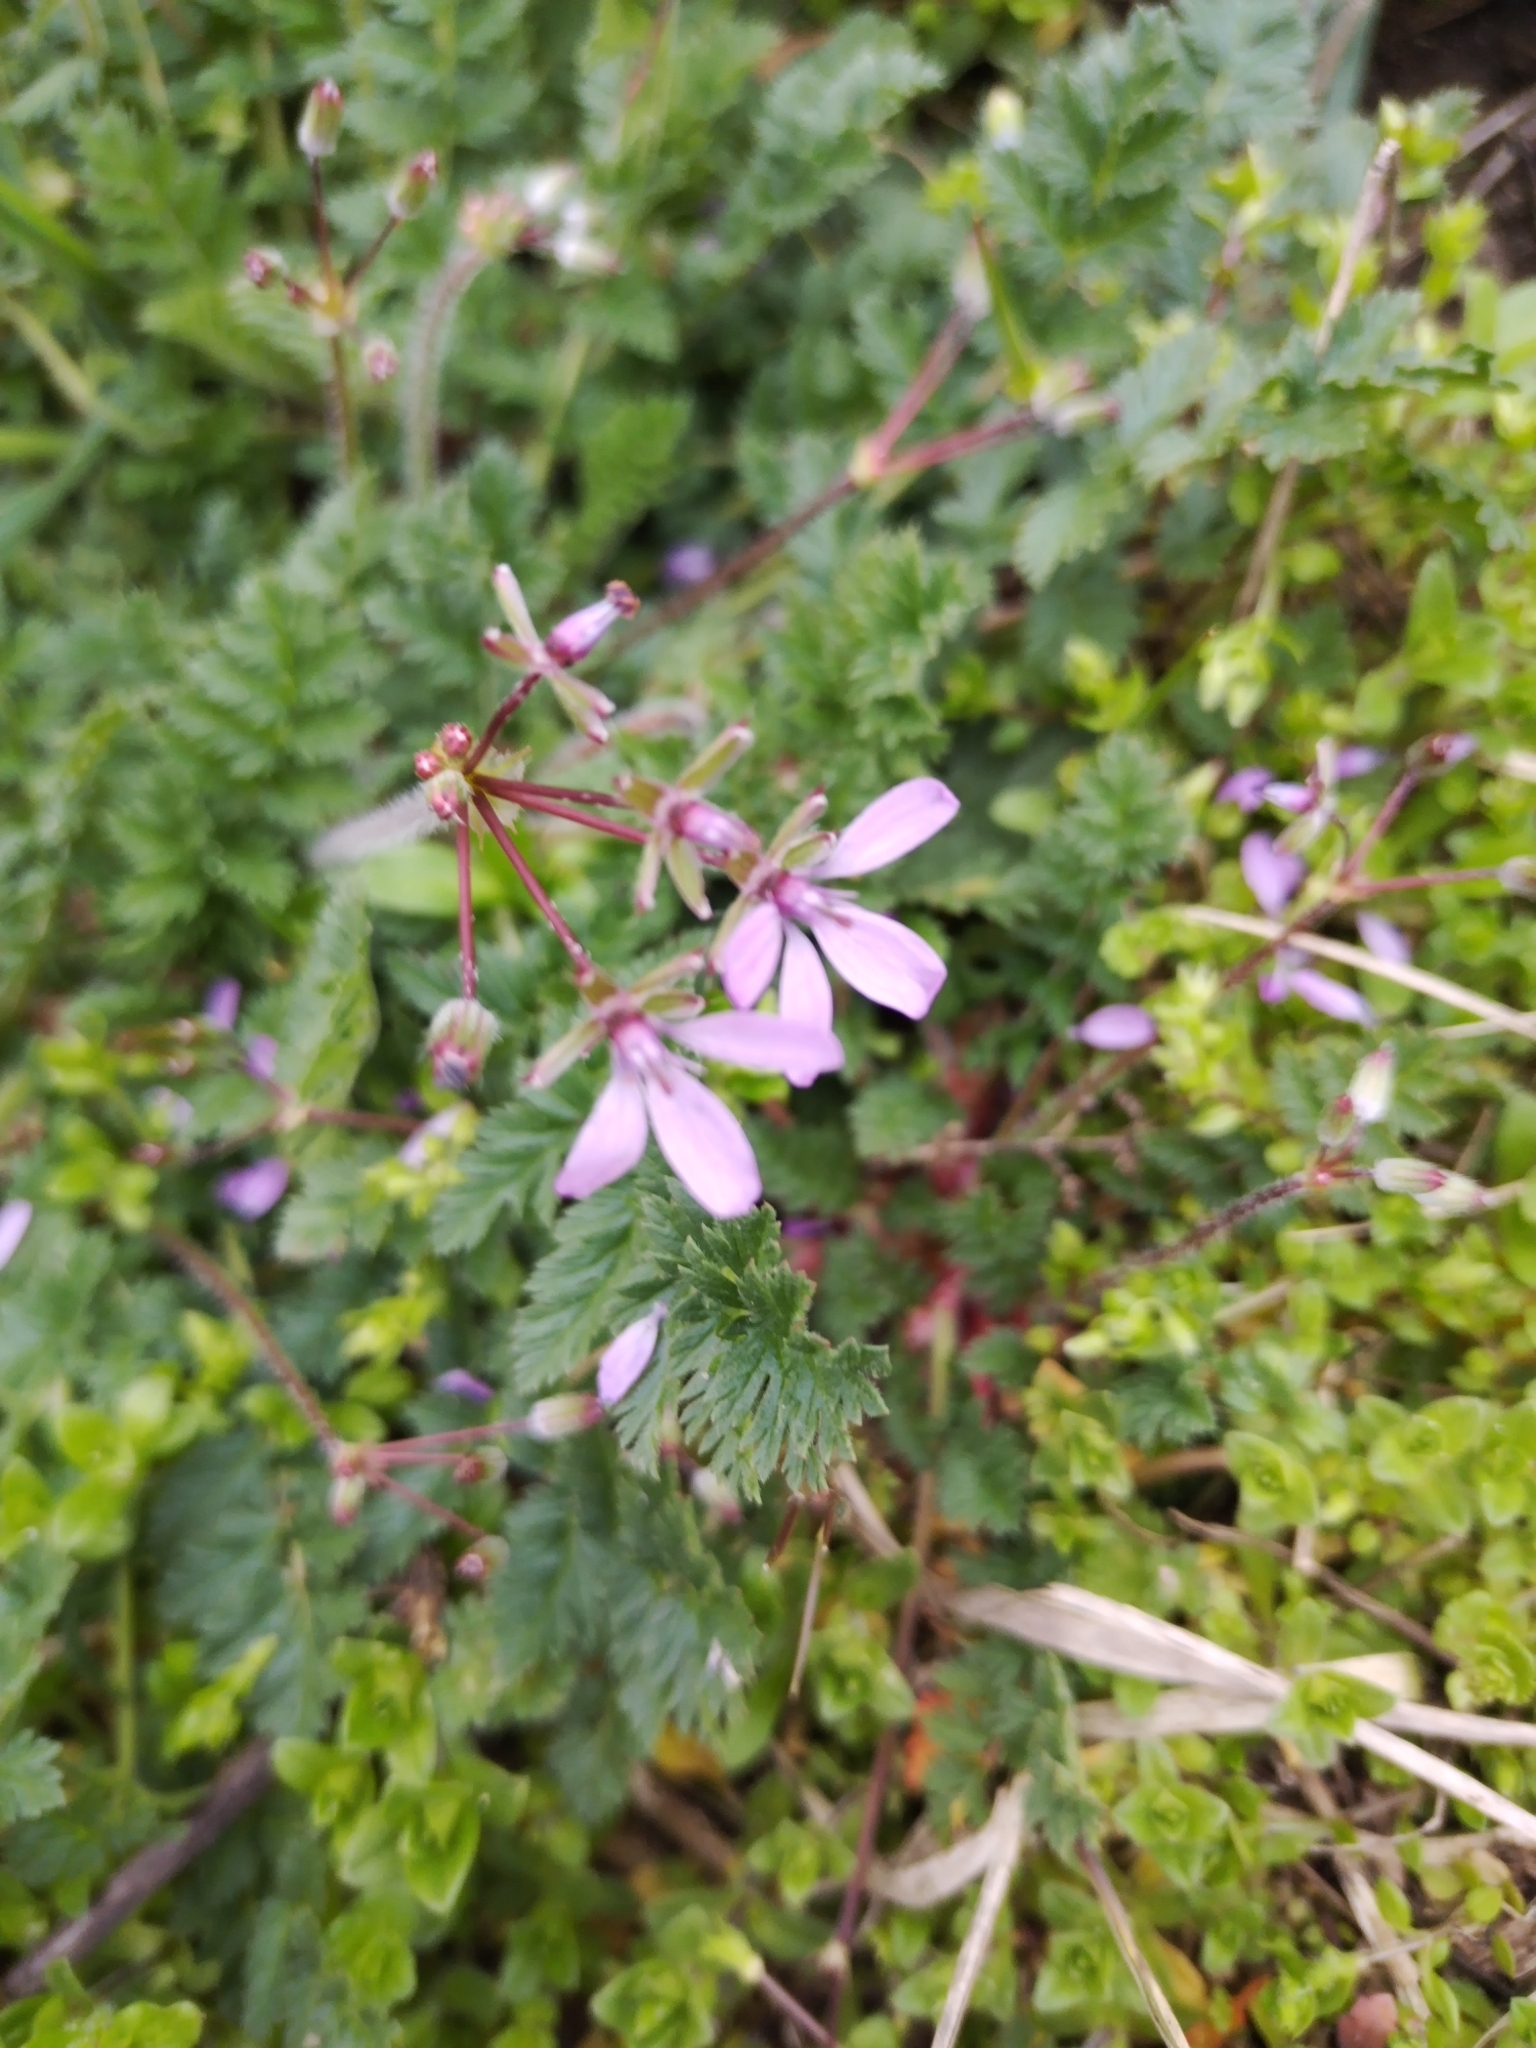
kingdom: Plantae
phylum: Tracheophyta
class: Magnoliopsida
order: Geraniales
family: Geraniaceae
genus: Erodium
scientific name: Erodium cicutarium
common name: Common stork's-bill
